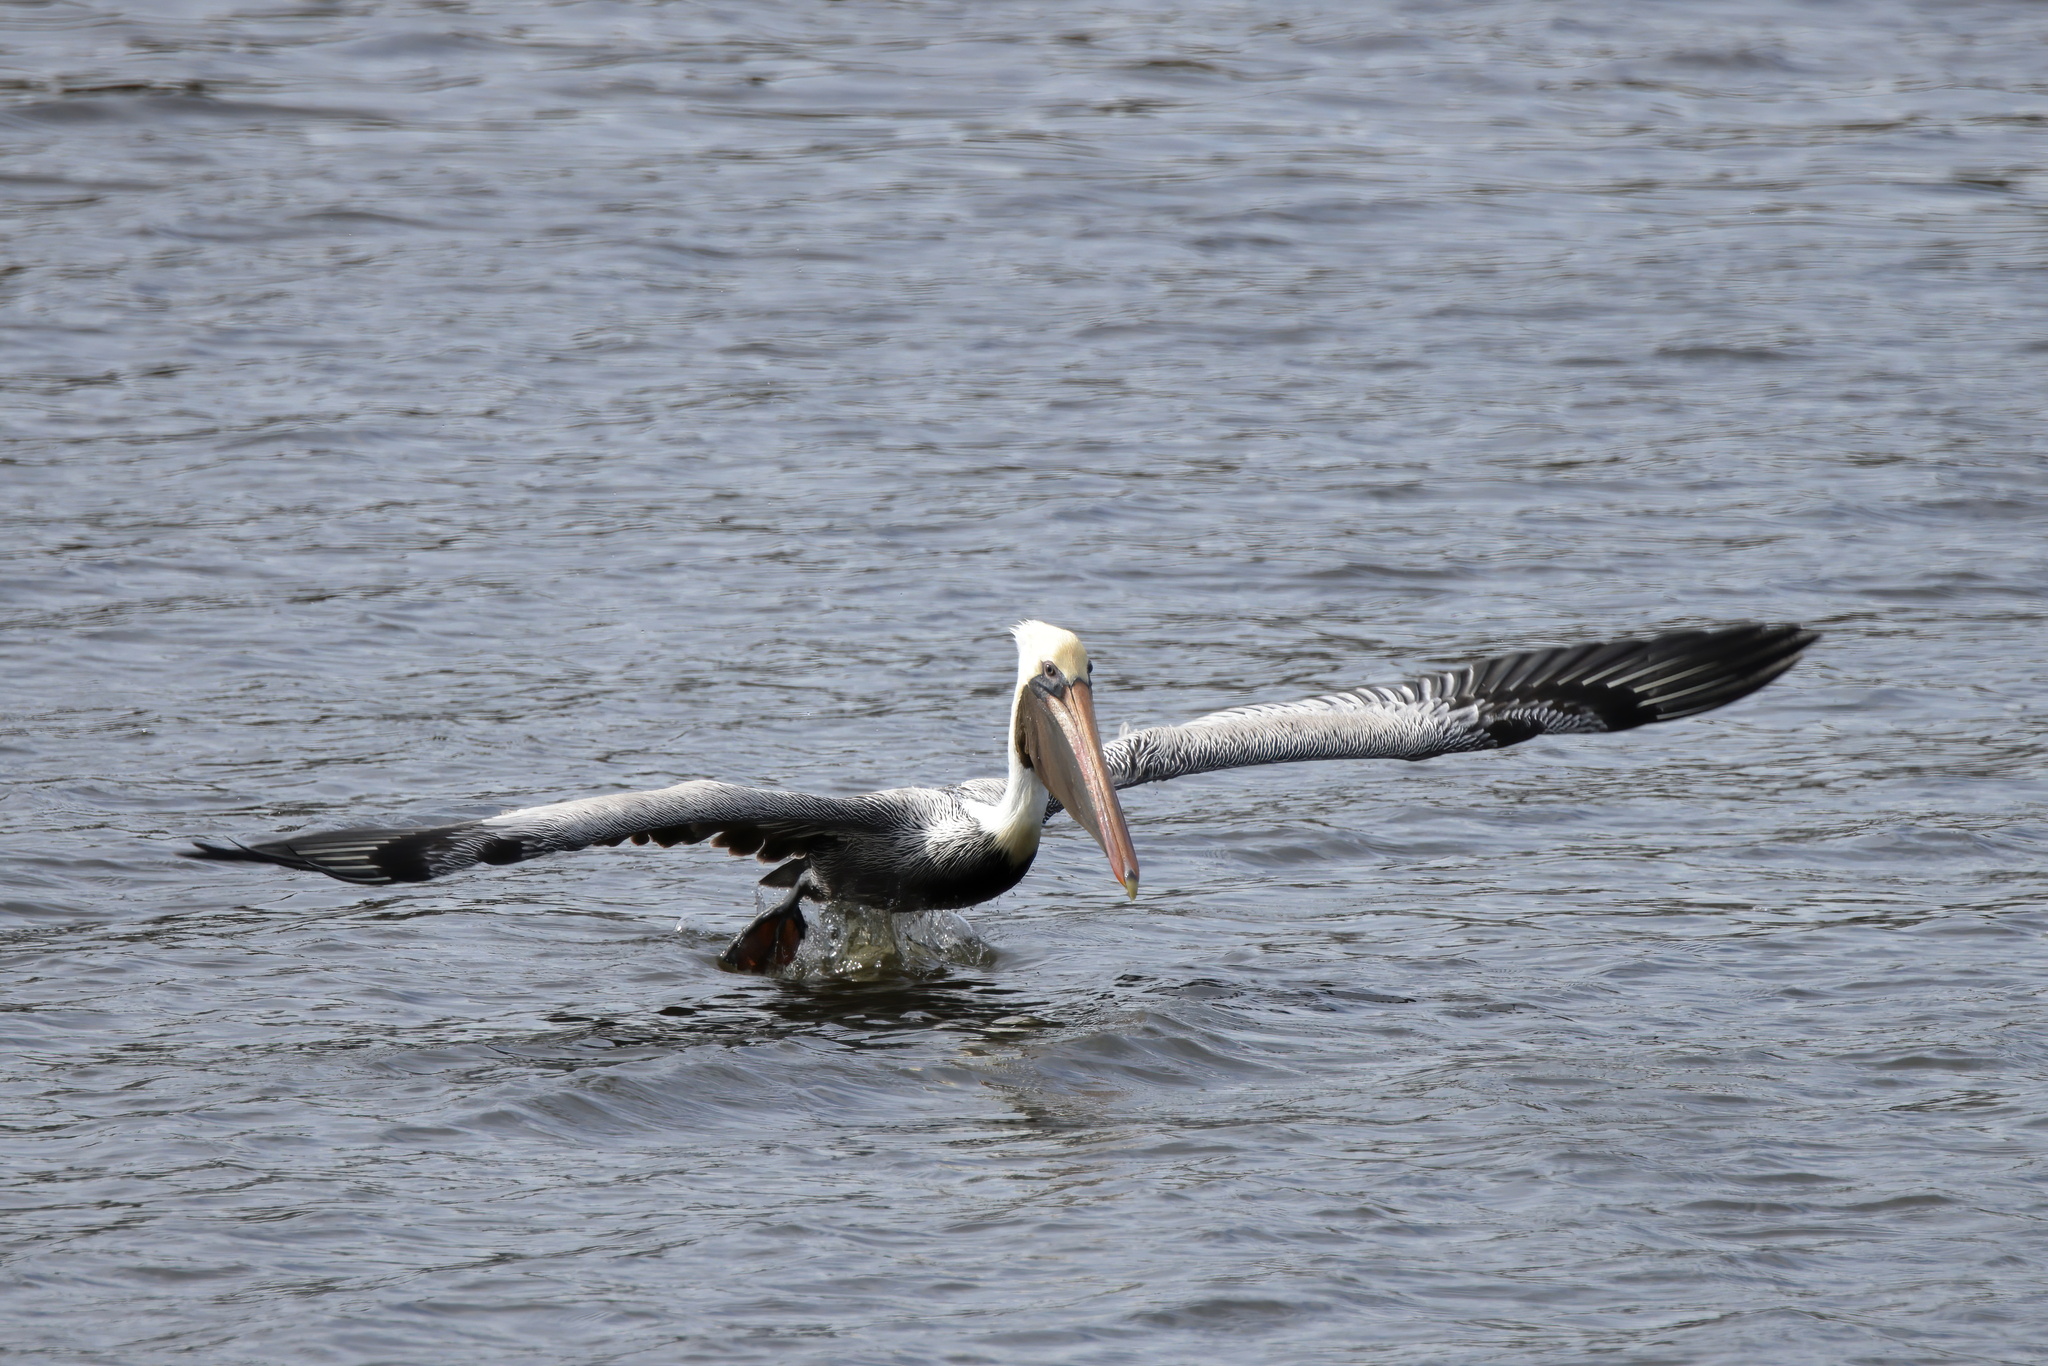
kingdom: Animalia
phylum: Chordata
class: Aves
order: Pelecaniformes
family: Pelecanidae
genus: Pelecanus
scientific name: Pelecanus occidentalis
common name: Brown pelican
